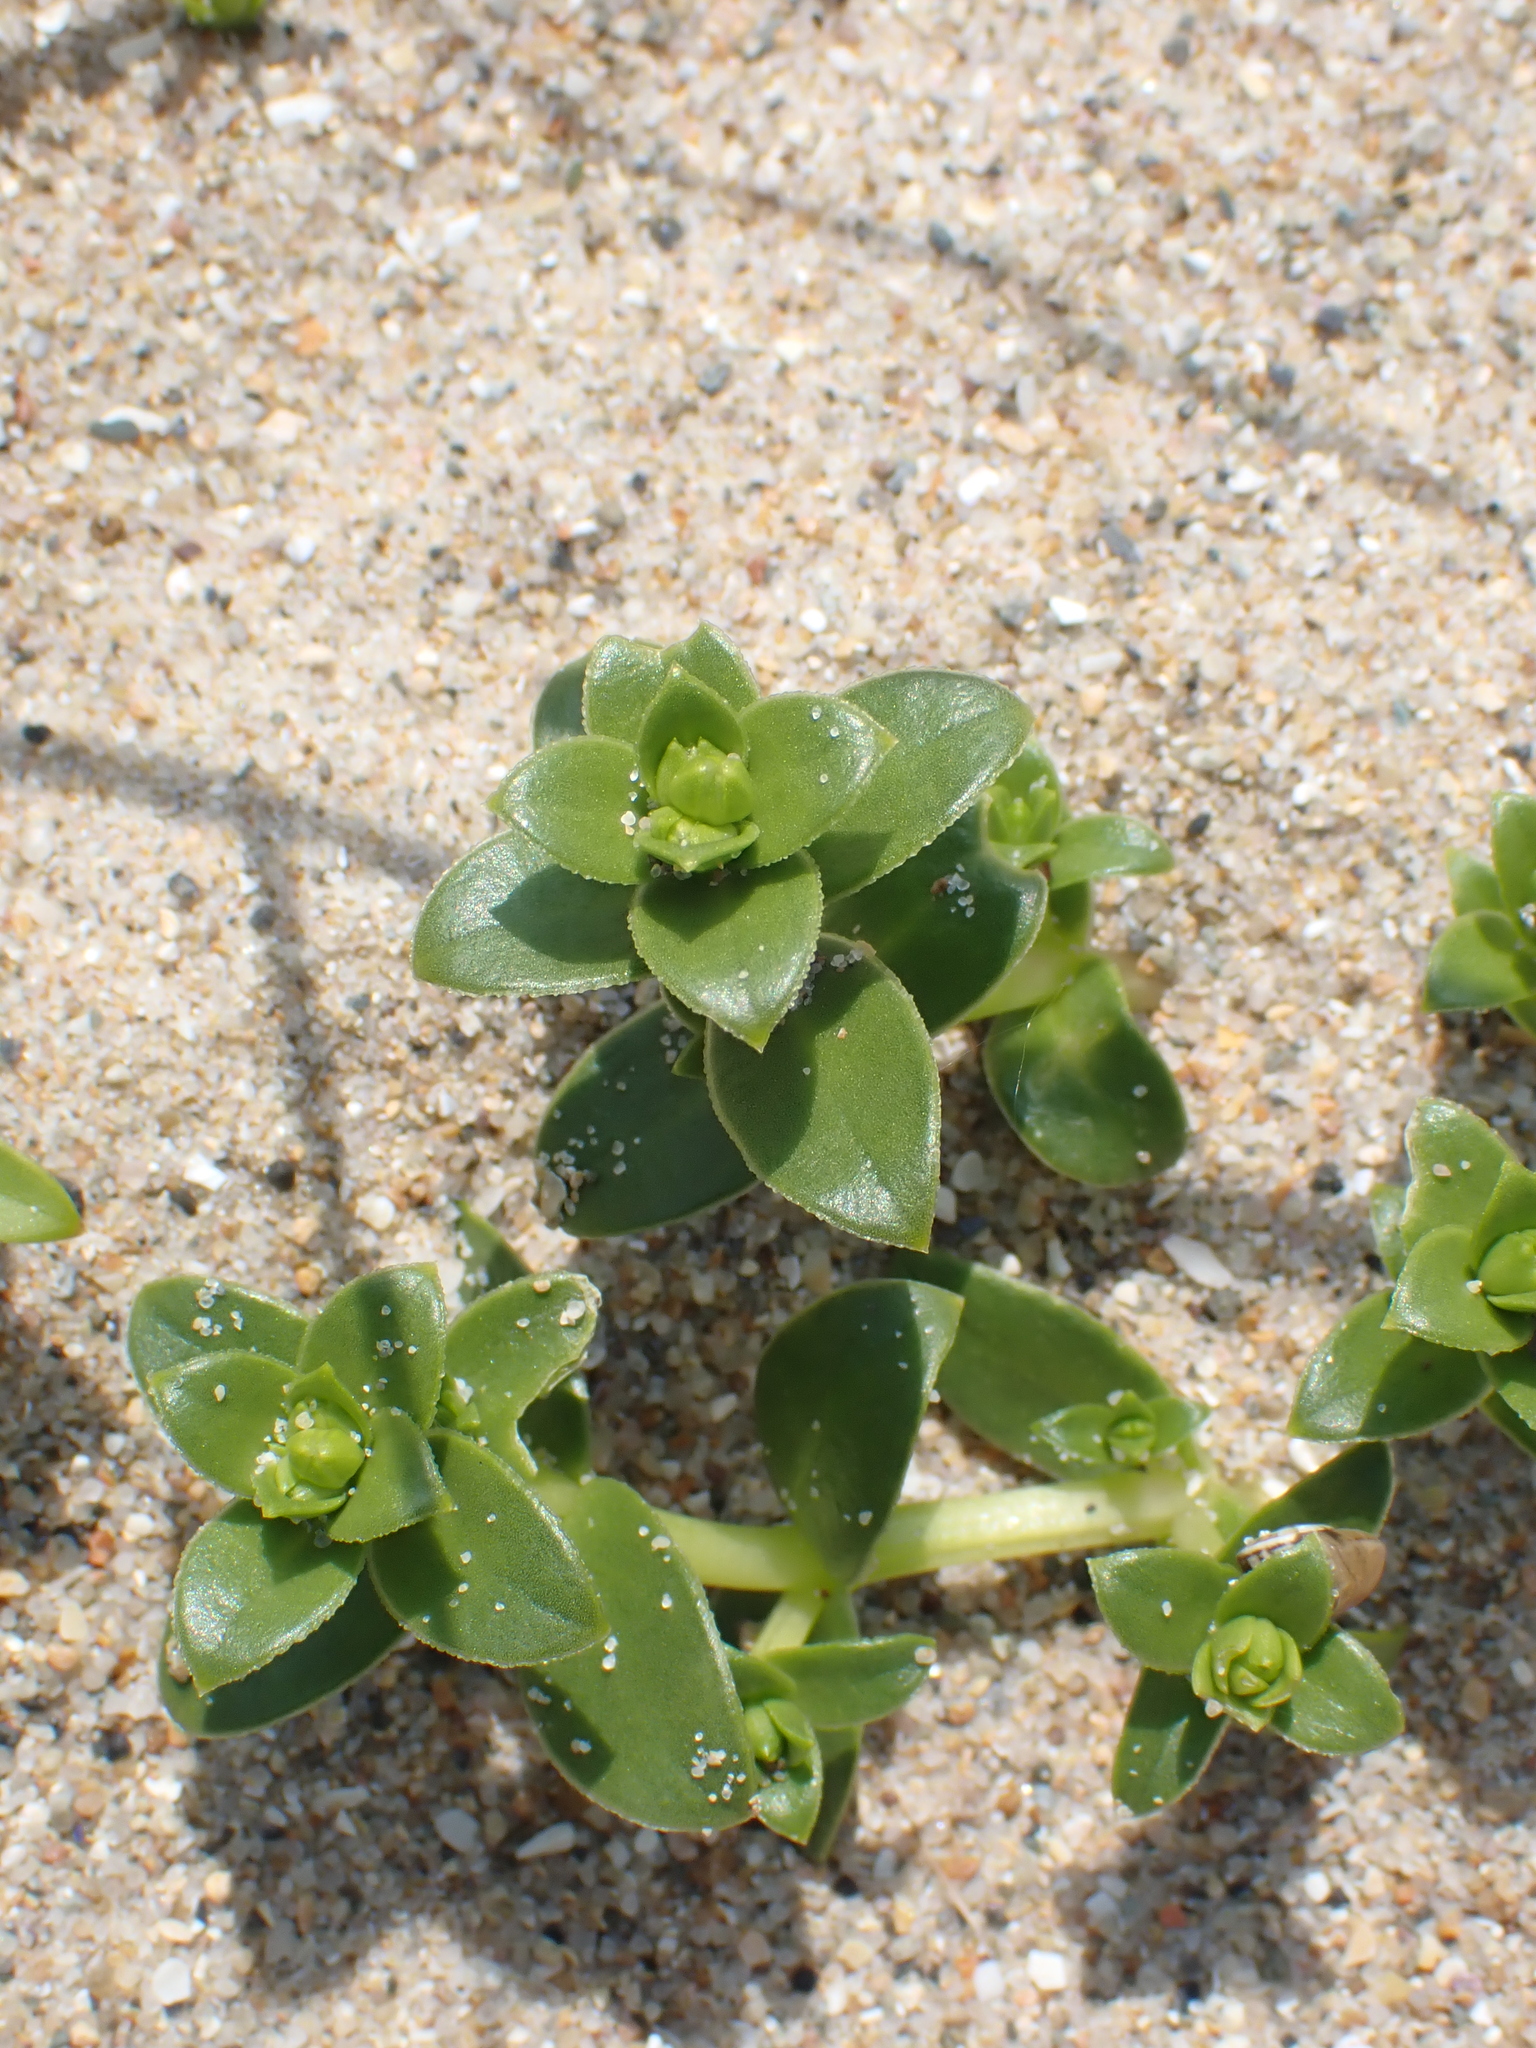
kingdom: Plantae
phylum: Tracheophyta
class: Magnoliopsida
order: Caryophyllales
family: Caryophyllaceae
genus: Honckenya
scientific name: Honckenya peploides
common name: Sea sandwort
